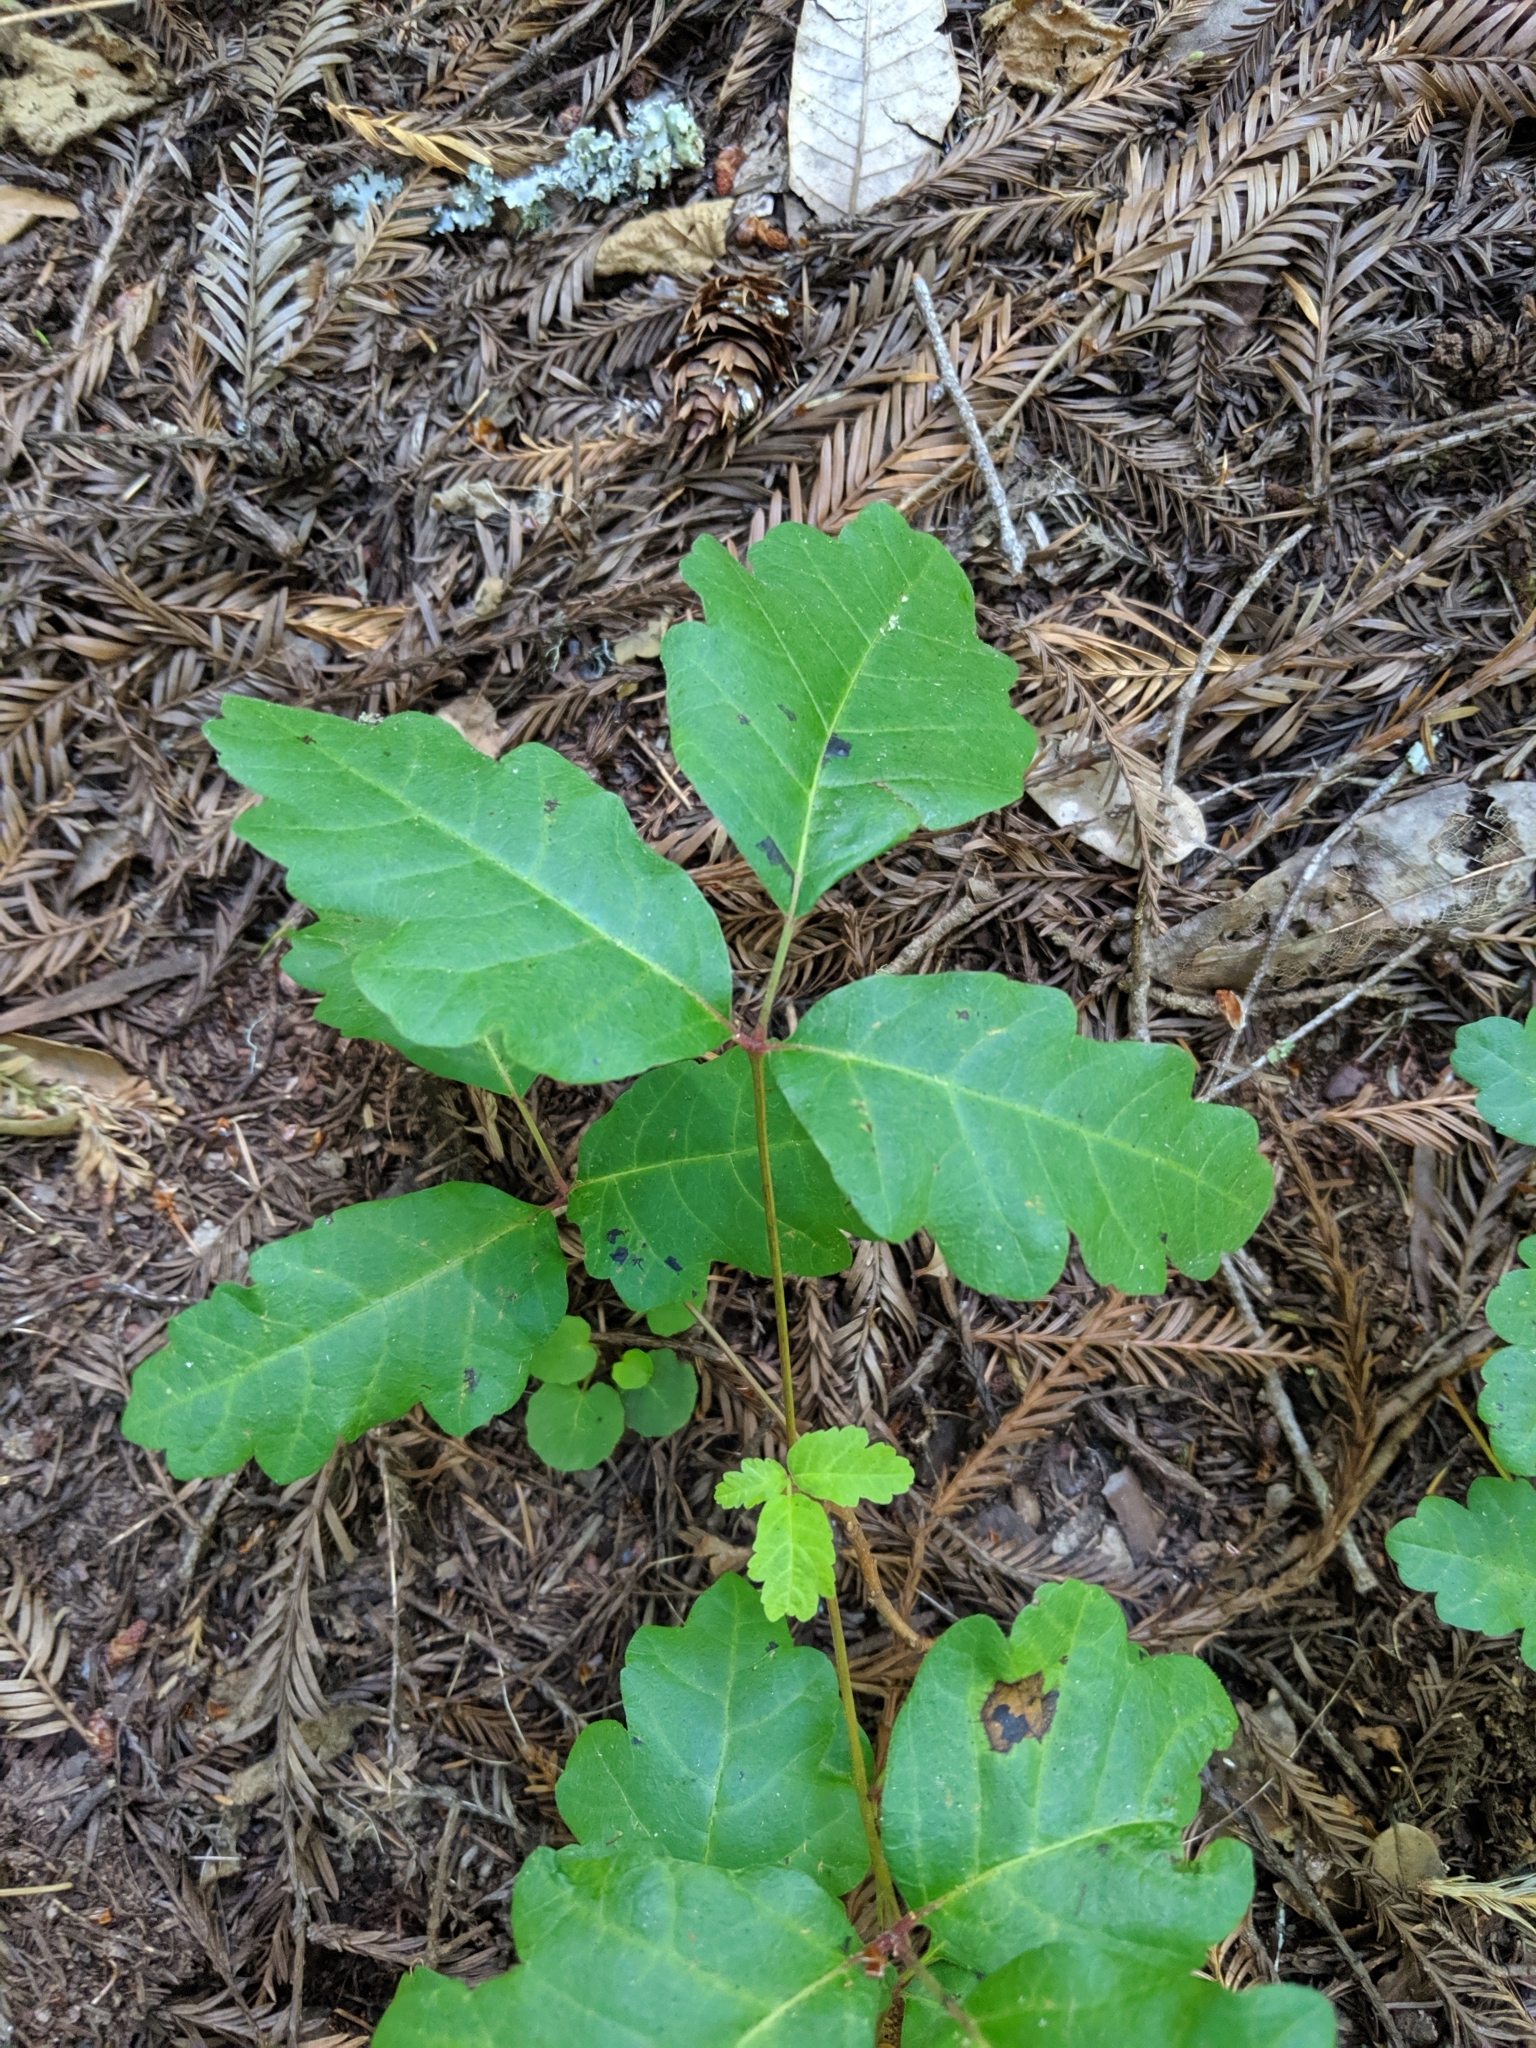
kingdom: Plantae
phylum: Tracheophyta
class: Magnoliopsida
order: Sapindales
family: Anacardiaceae
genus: Toxicodendron
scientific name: Toxicodendron diversilobum
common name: Pacific poison-oak
